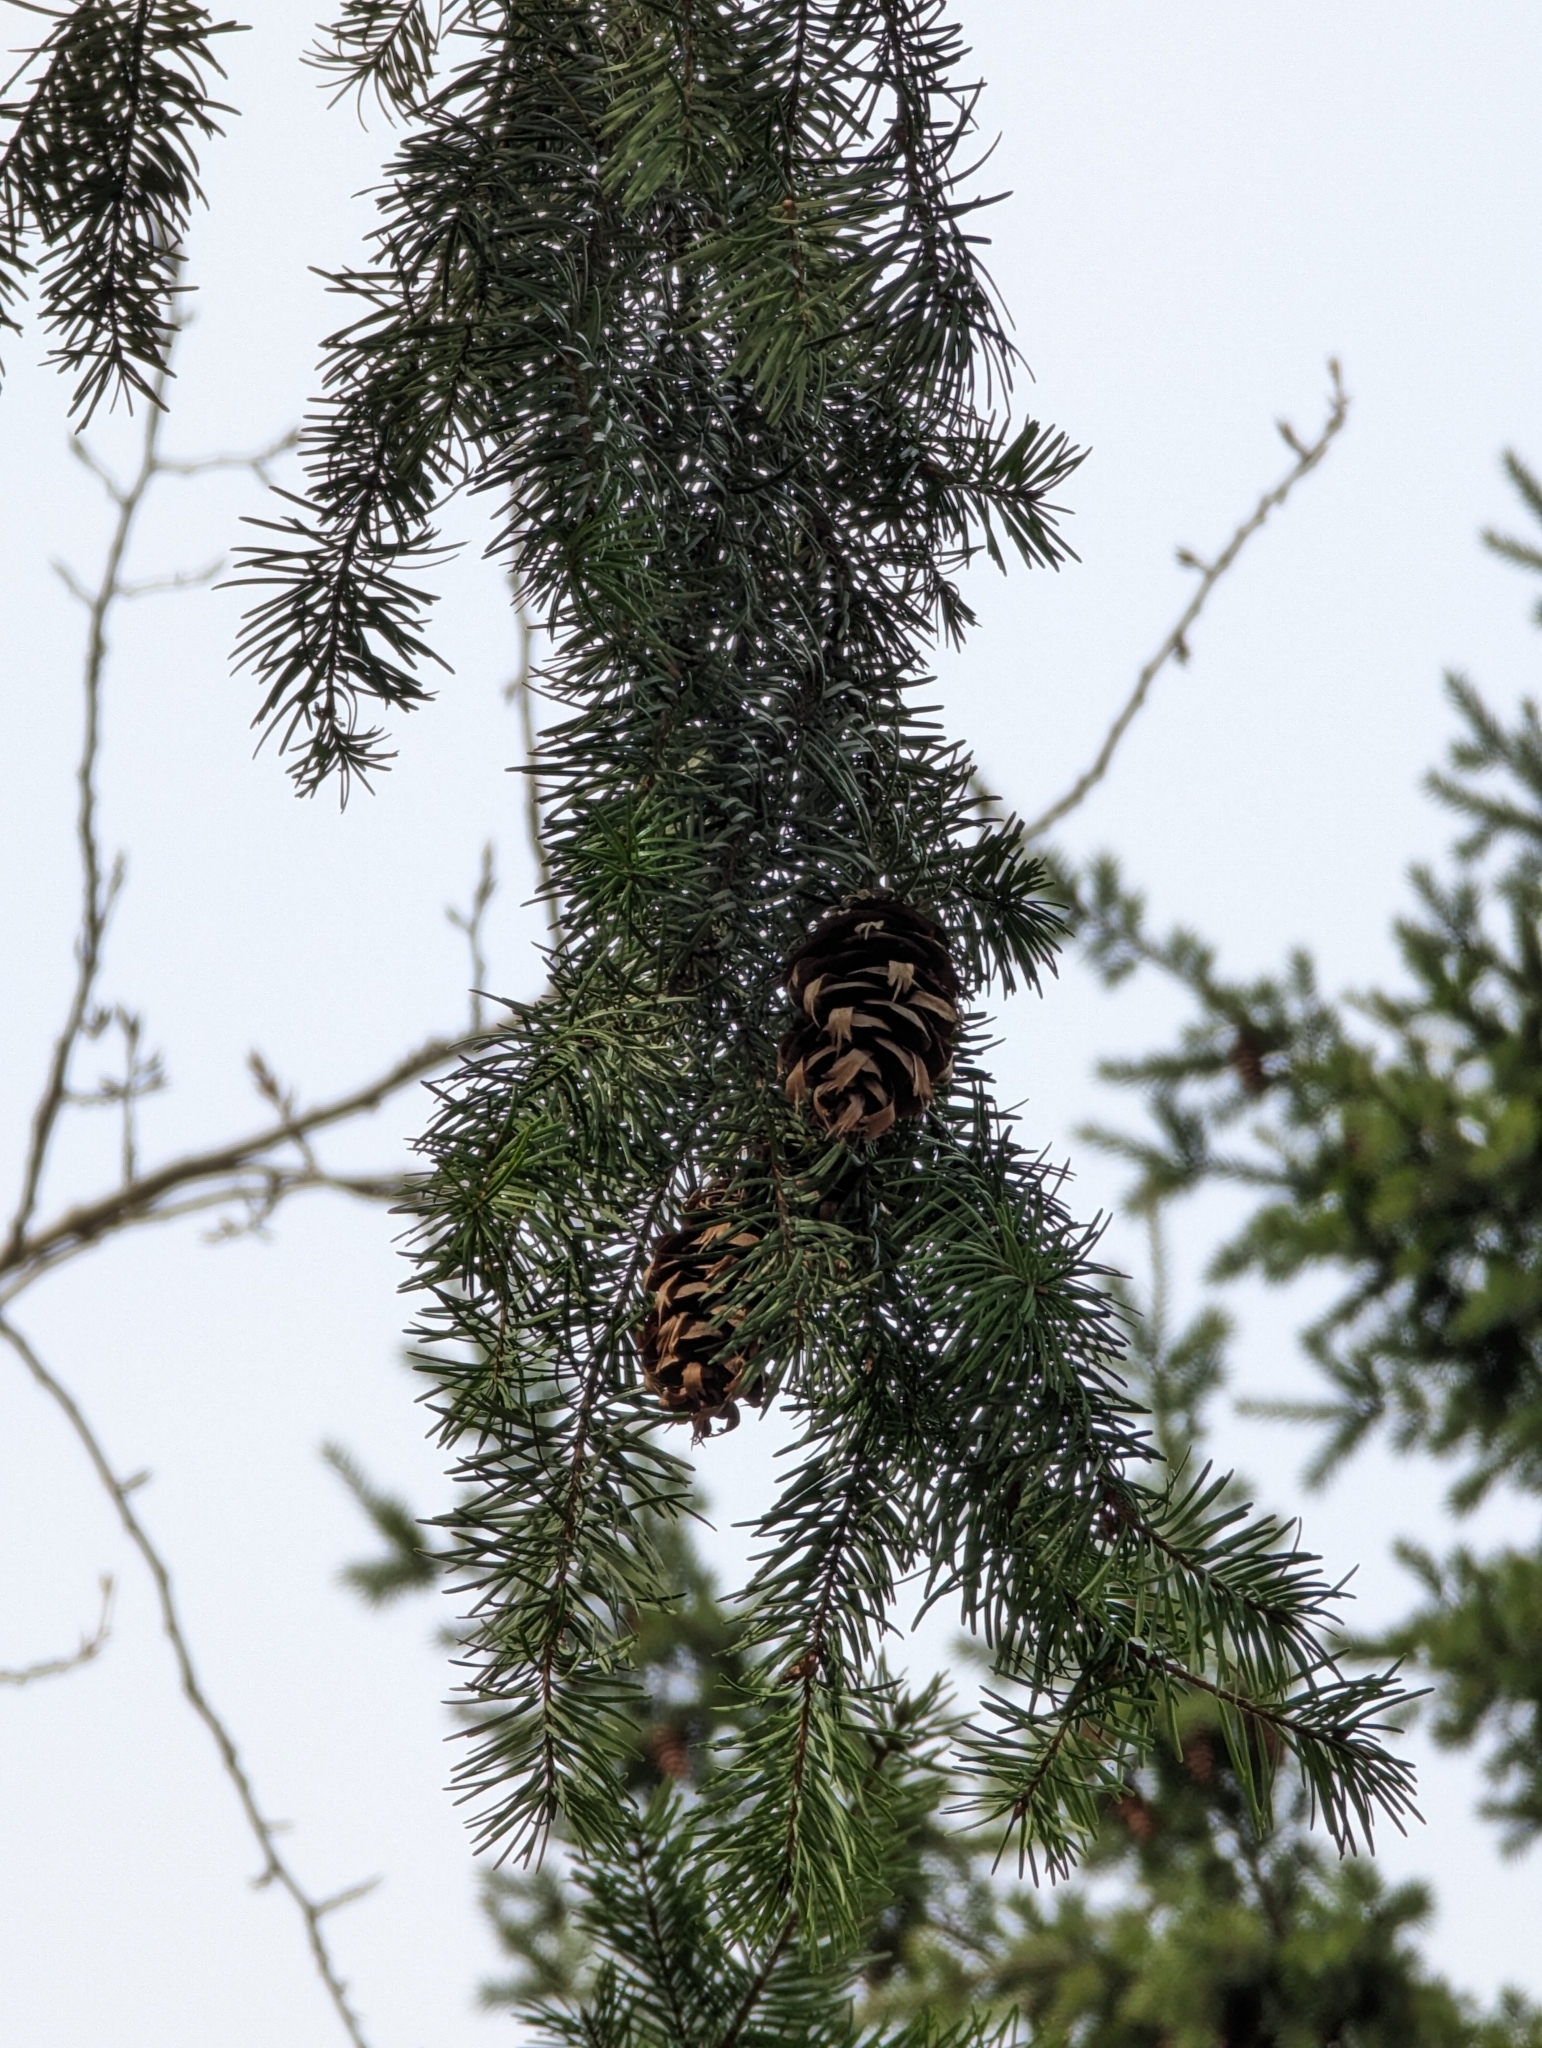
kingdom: Plantae
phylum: Tracheophyta
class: Pinopsida
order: Pinales
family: Pinaceae
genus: Pseudotsuga
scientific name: Pseudotsuga menziesii
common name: Douglas fir
